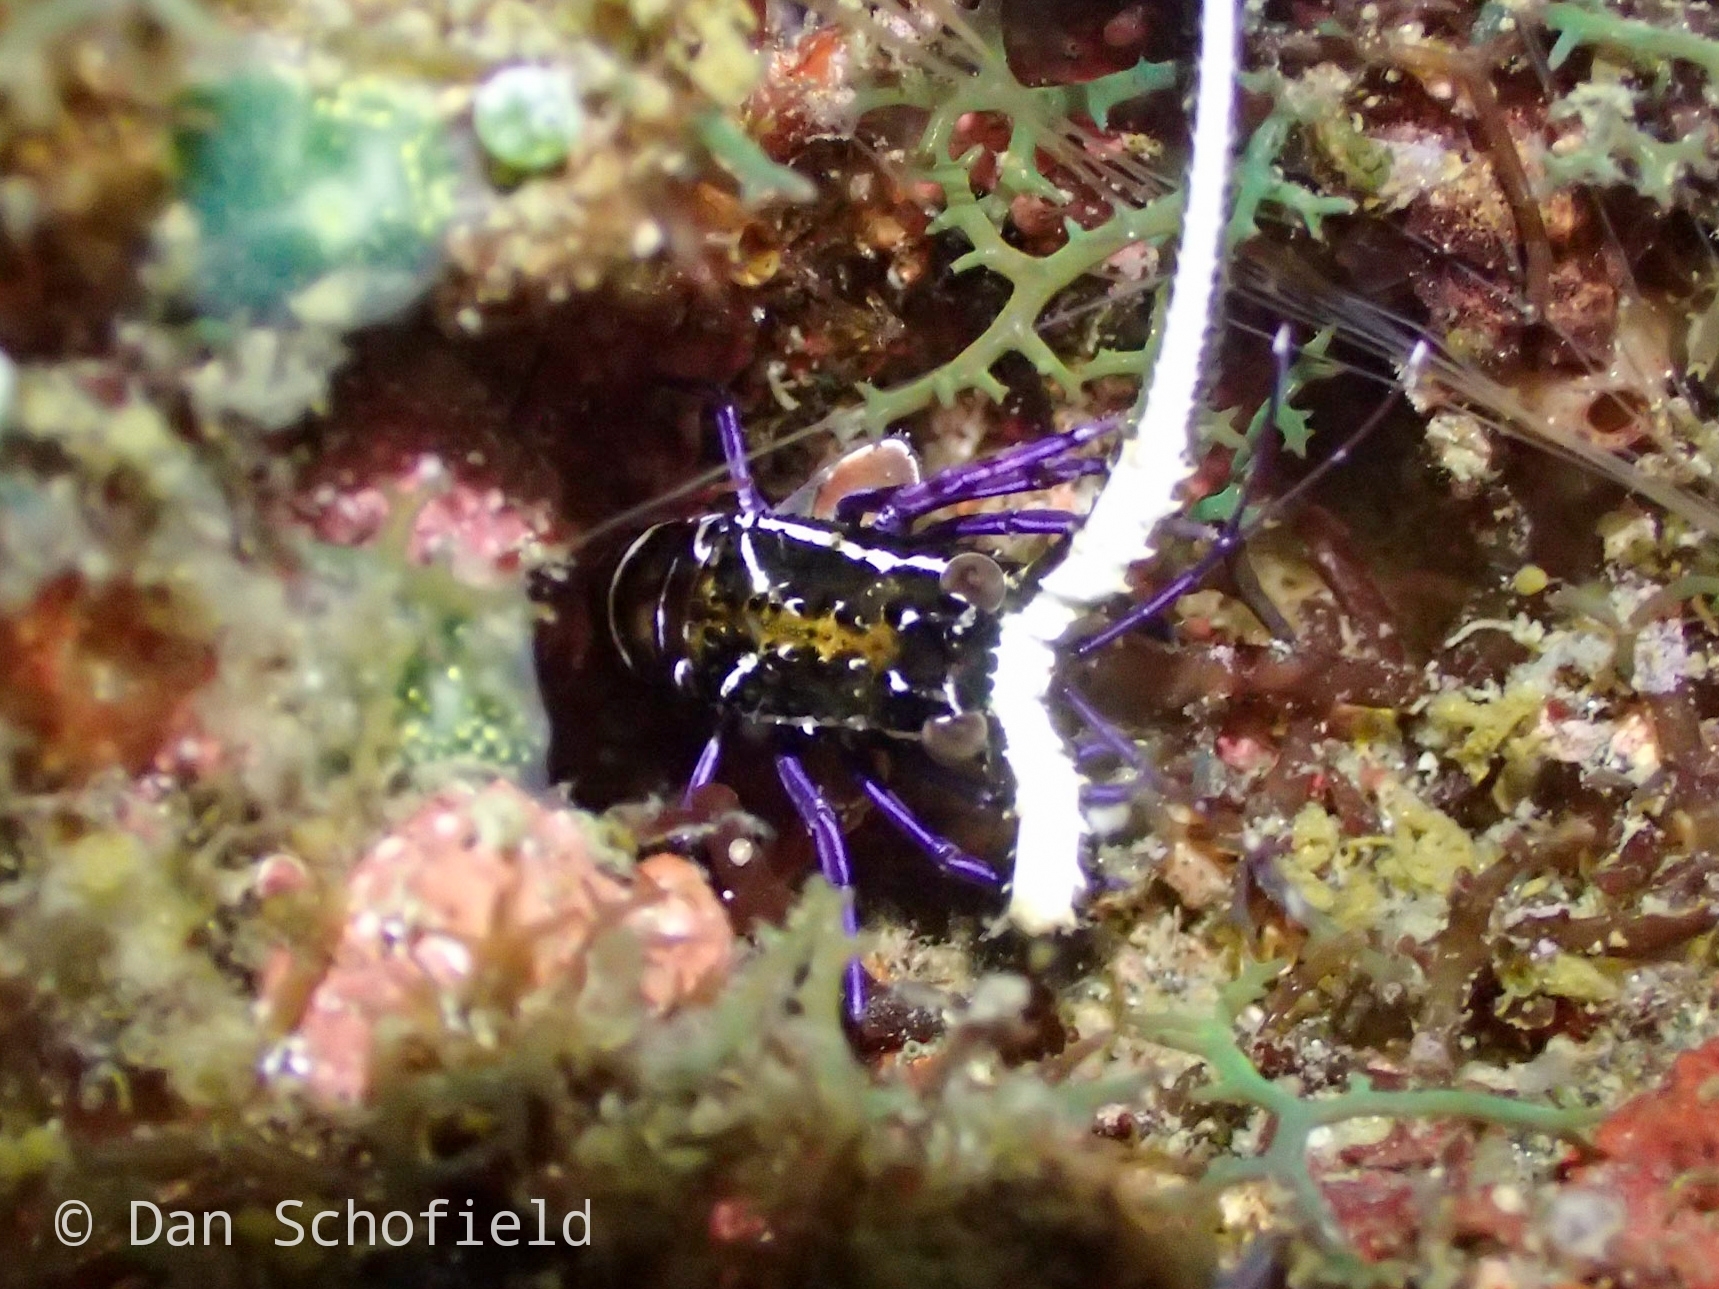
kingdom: Animalia
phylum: Arthropoda
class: Malacostraca
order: Decapoda
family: Palinuridae
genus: Panulirus
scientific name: Panulirus versicolor
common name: Painted spiny lobster
